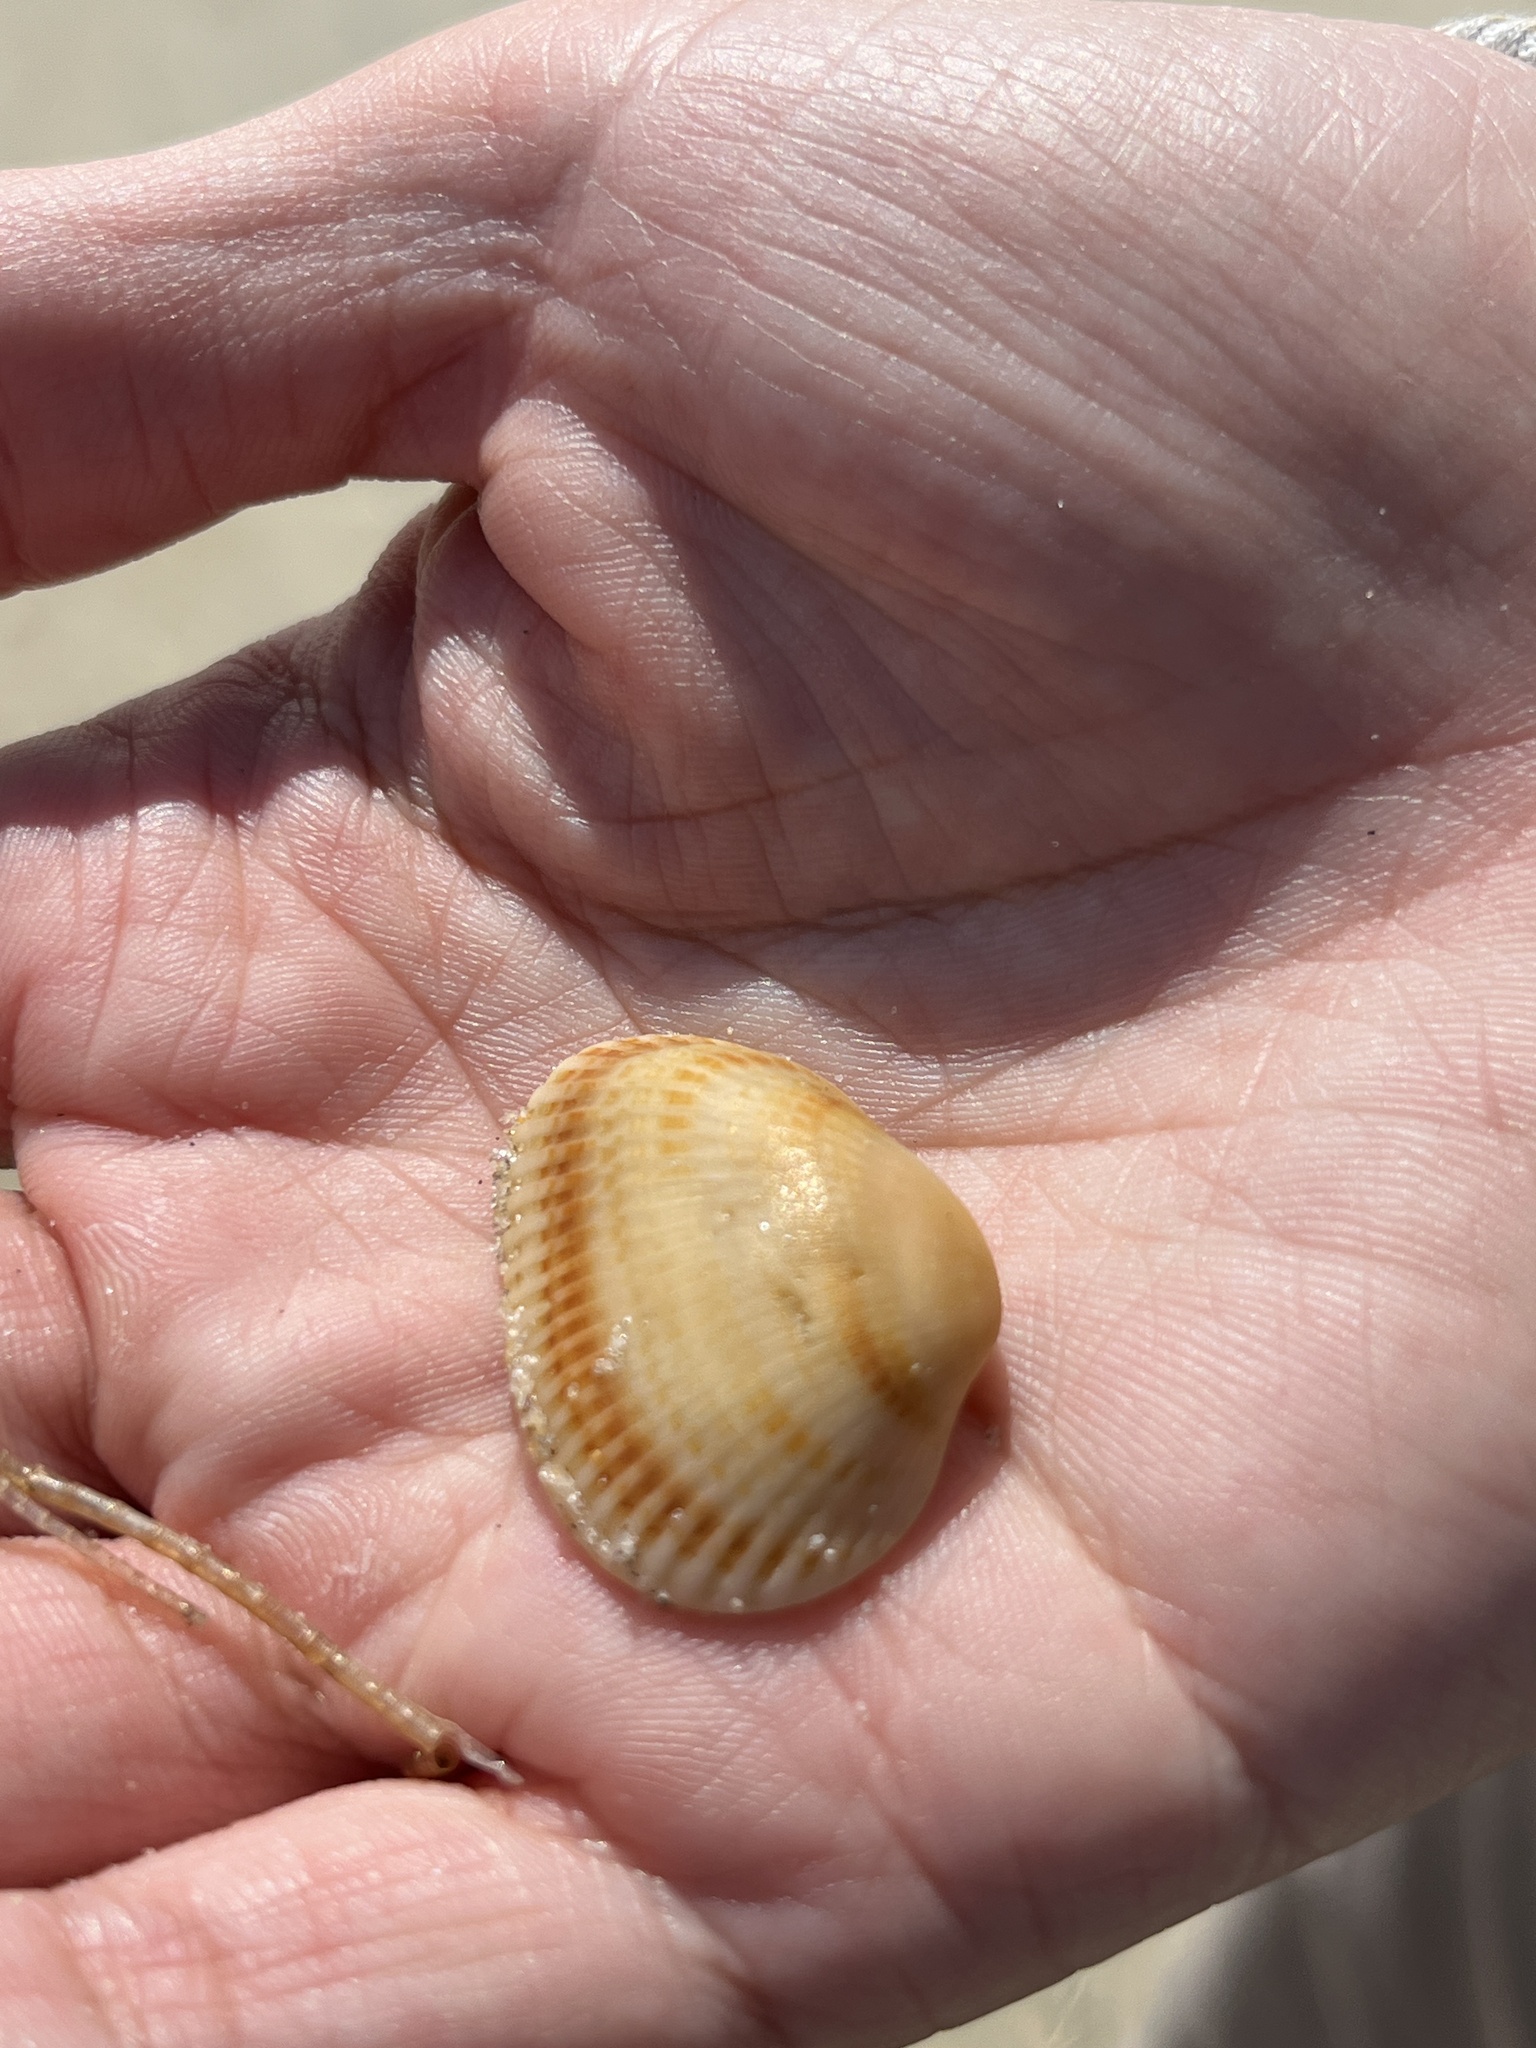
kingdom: Animalia
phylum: Mollusca
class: Bivalvia
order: Arcida
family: Arcidae
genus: Anadara
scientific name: Anadara transversa
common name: Transverse ark
